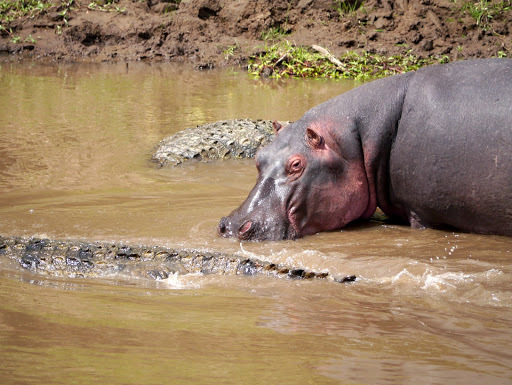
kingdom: Animalia
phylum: Chordata
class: Mammalia
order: Artiodactyla
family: Hippopotamidae
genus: Hippopotamus
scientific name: Hippopotamus amphibius
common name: Common hippopotamus
